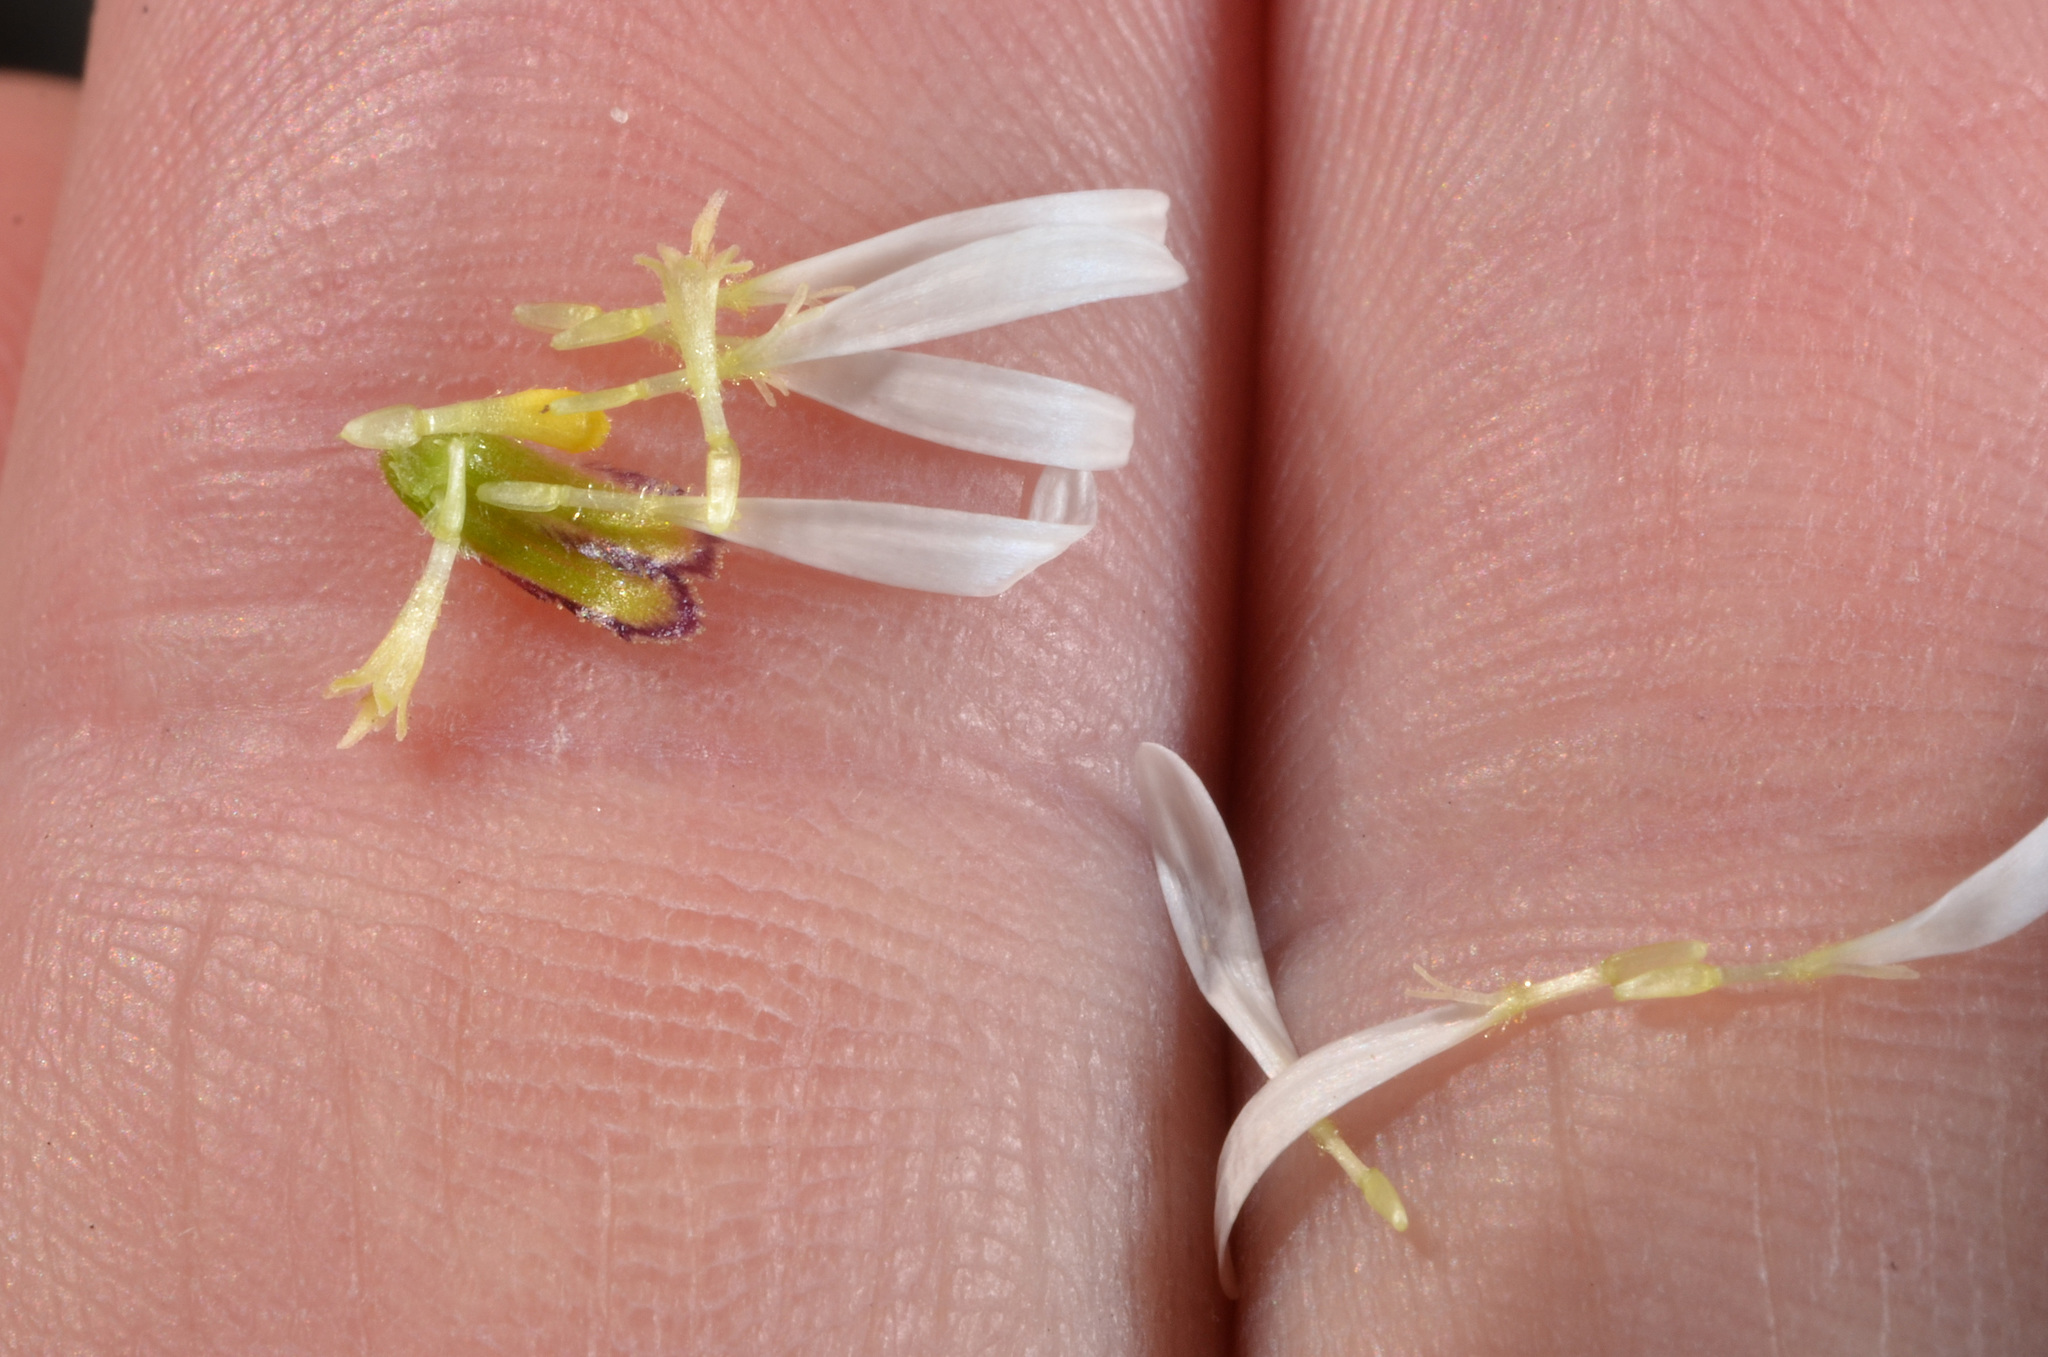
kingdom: Plantae
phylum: Tracheophyta
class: Magnoliopsida
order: Asterales
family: Asteraceae
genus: Brachyscome
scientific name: Brachyscome sinclairii
